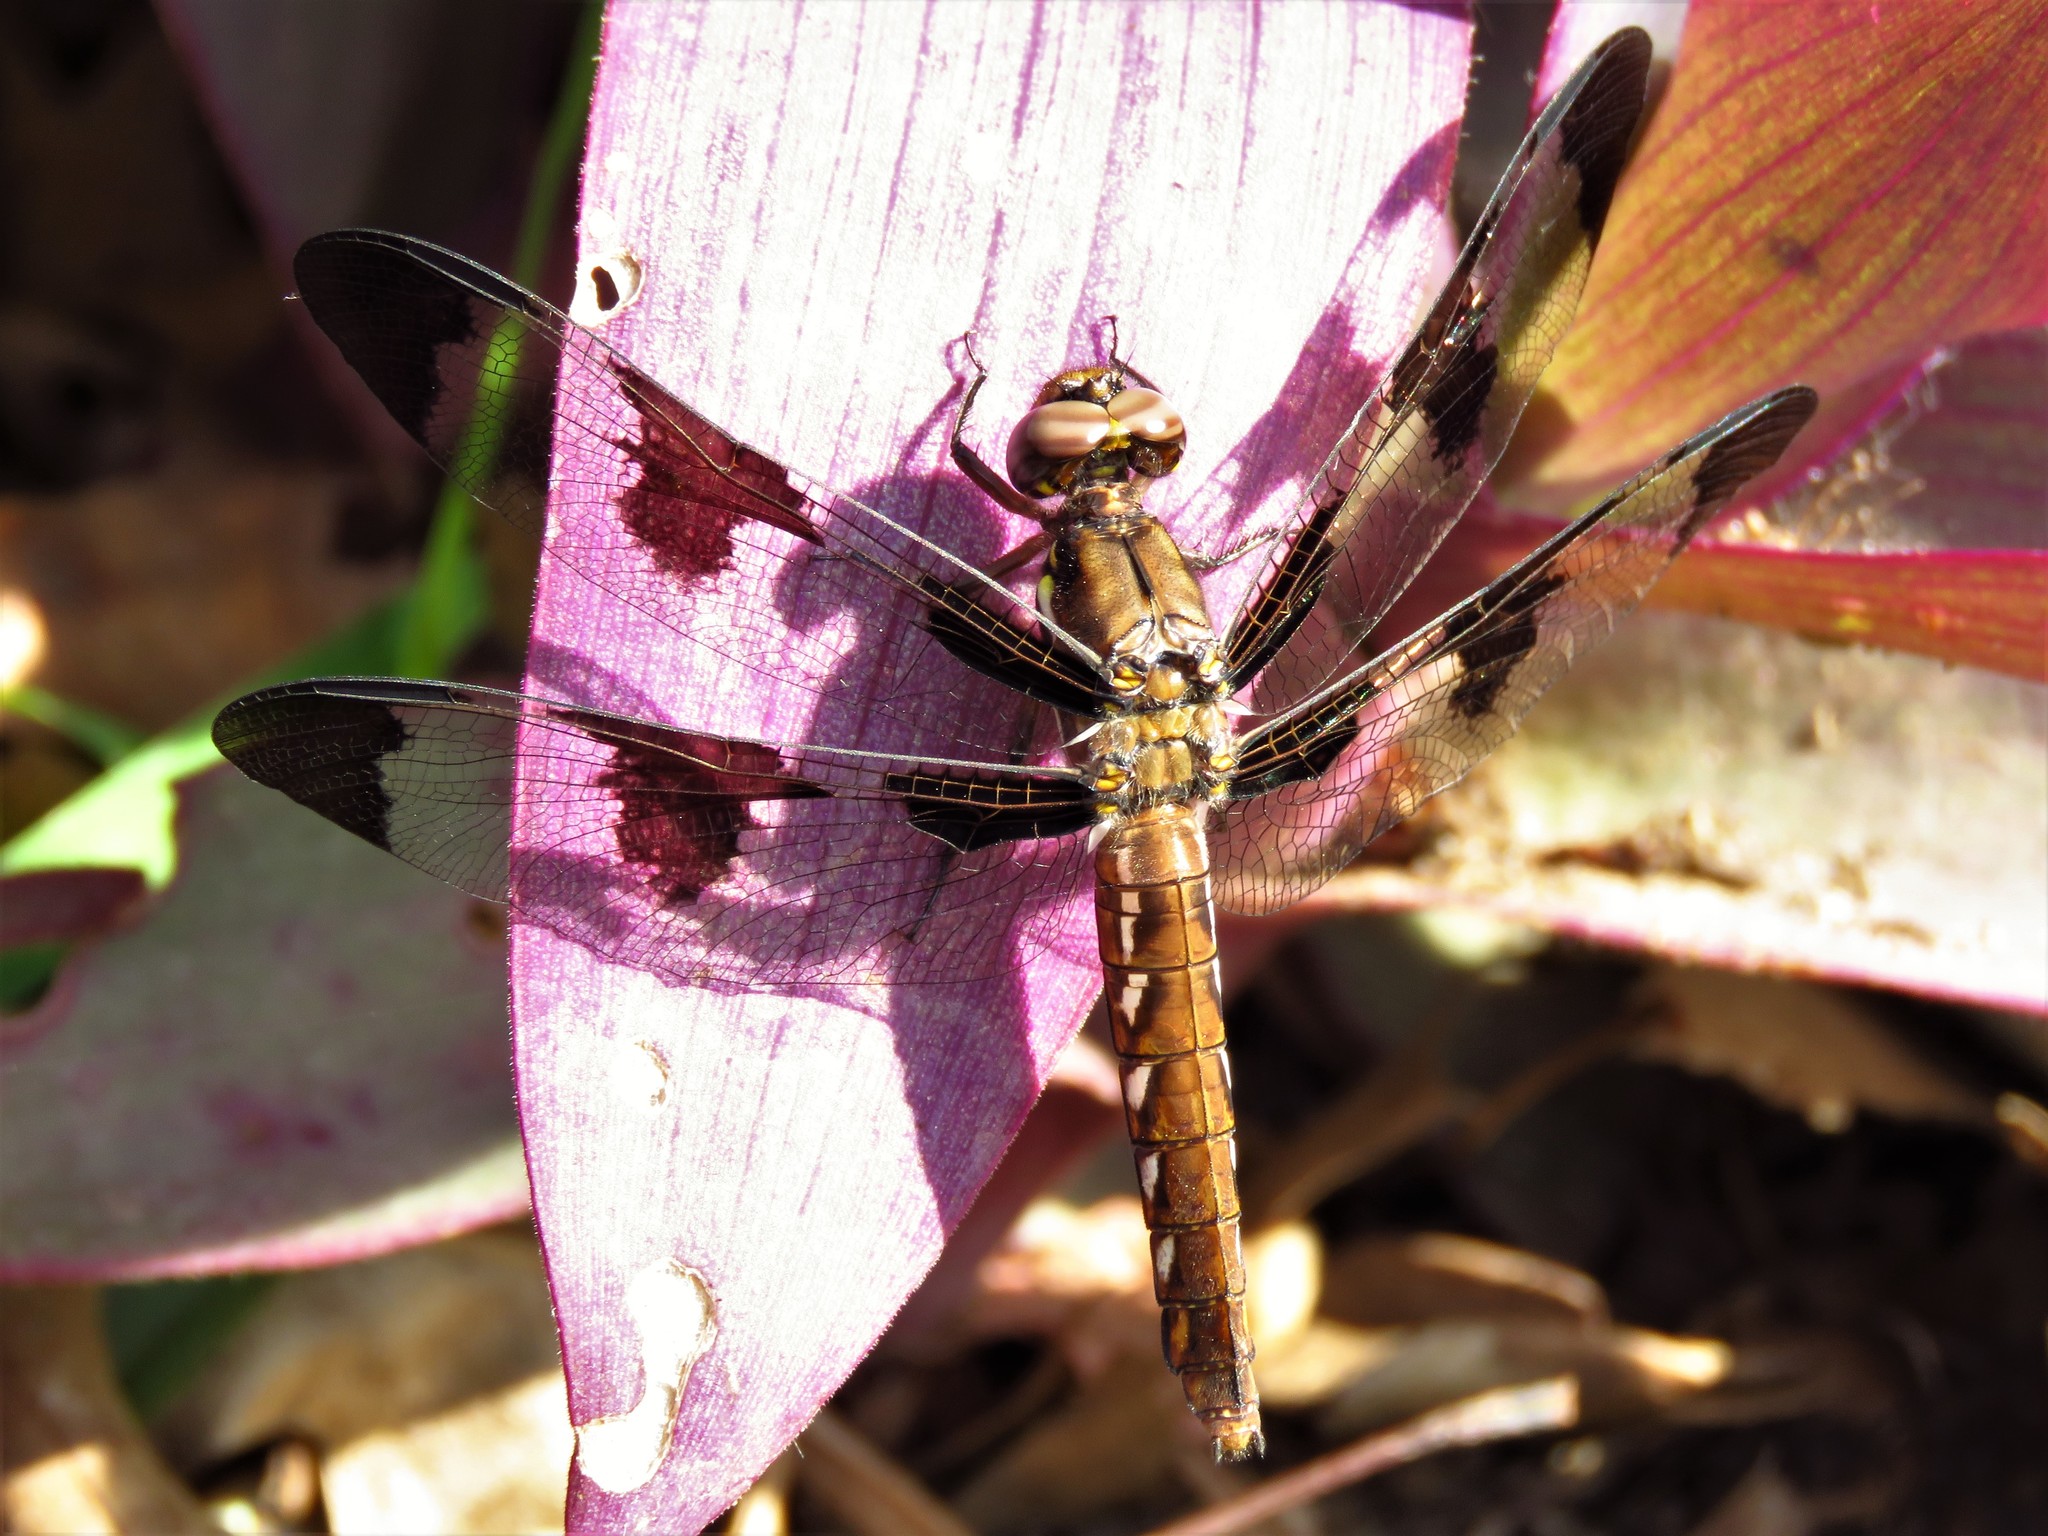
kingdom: Animalia
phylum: Arthropoda
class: Insecta
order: Odonata
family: Libellulidae
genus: Plathemis
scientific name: Plathemis lydia
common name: Common whitetail
